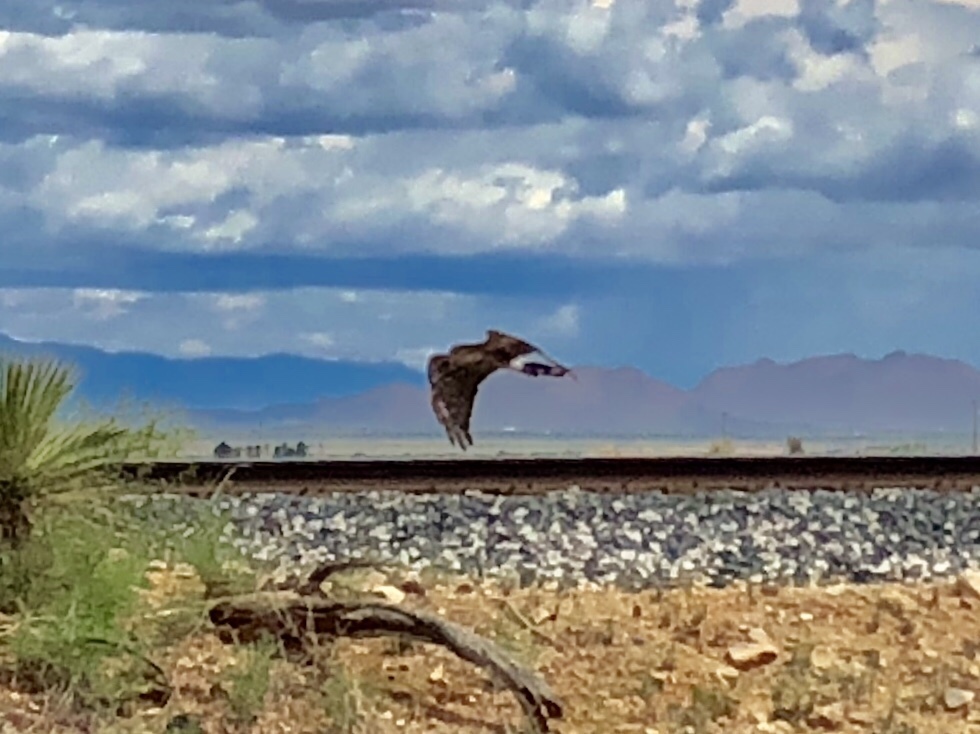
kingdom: Animalia
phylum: Chordata
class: Aves
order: Accipitriformes
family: Accipitridae
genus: Circus
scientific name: Circus cyaneus
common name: Hen harrier
